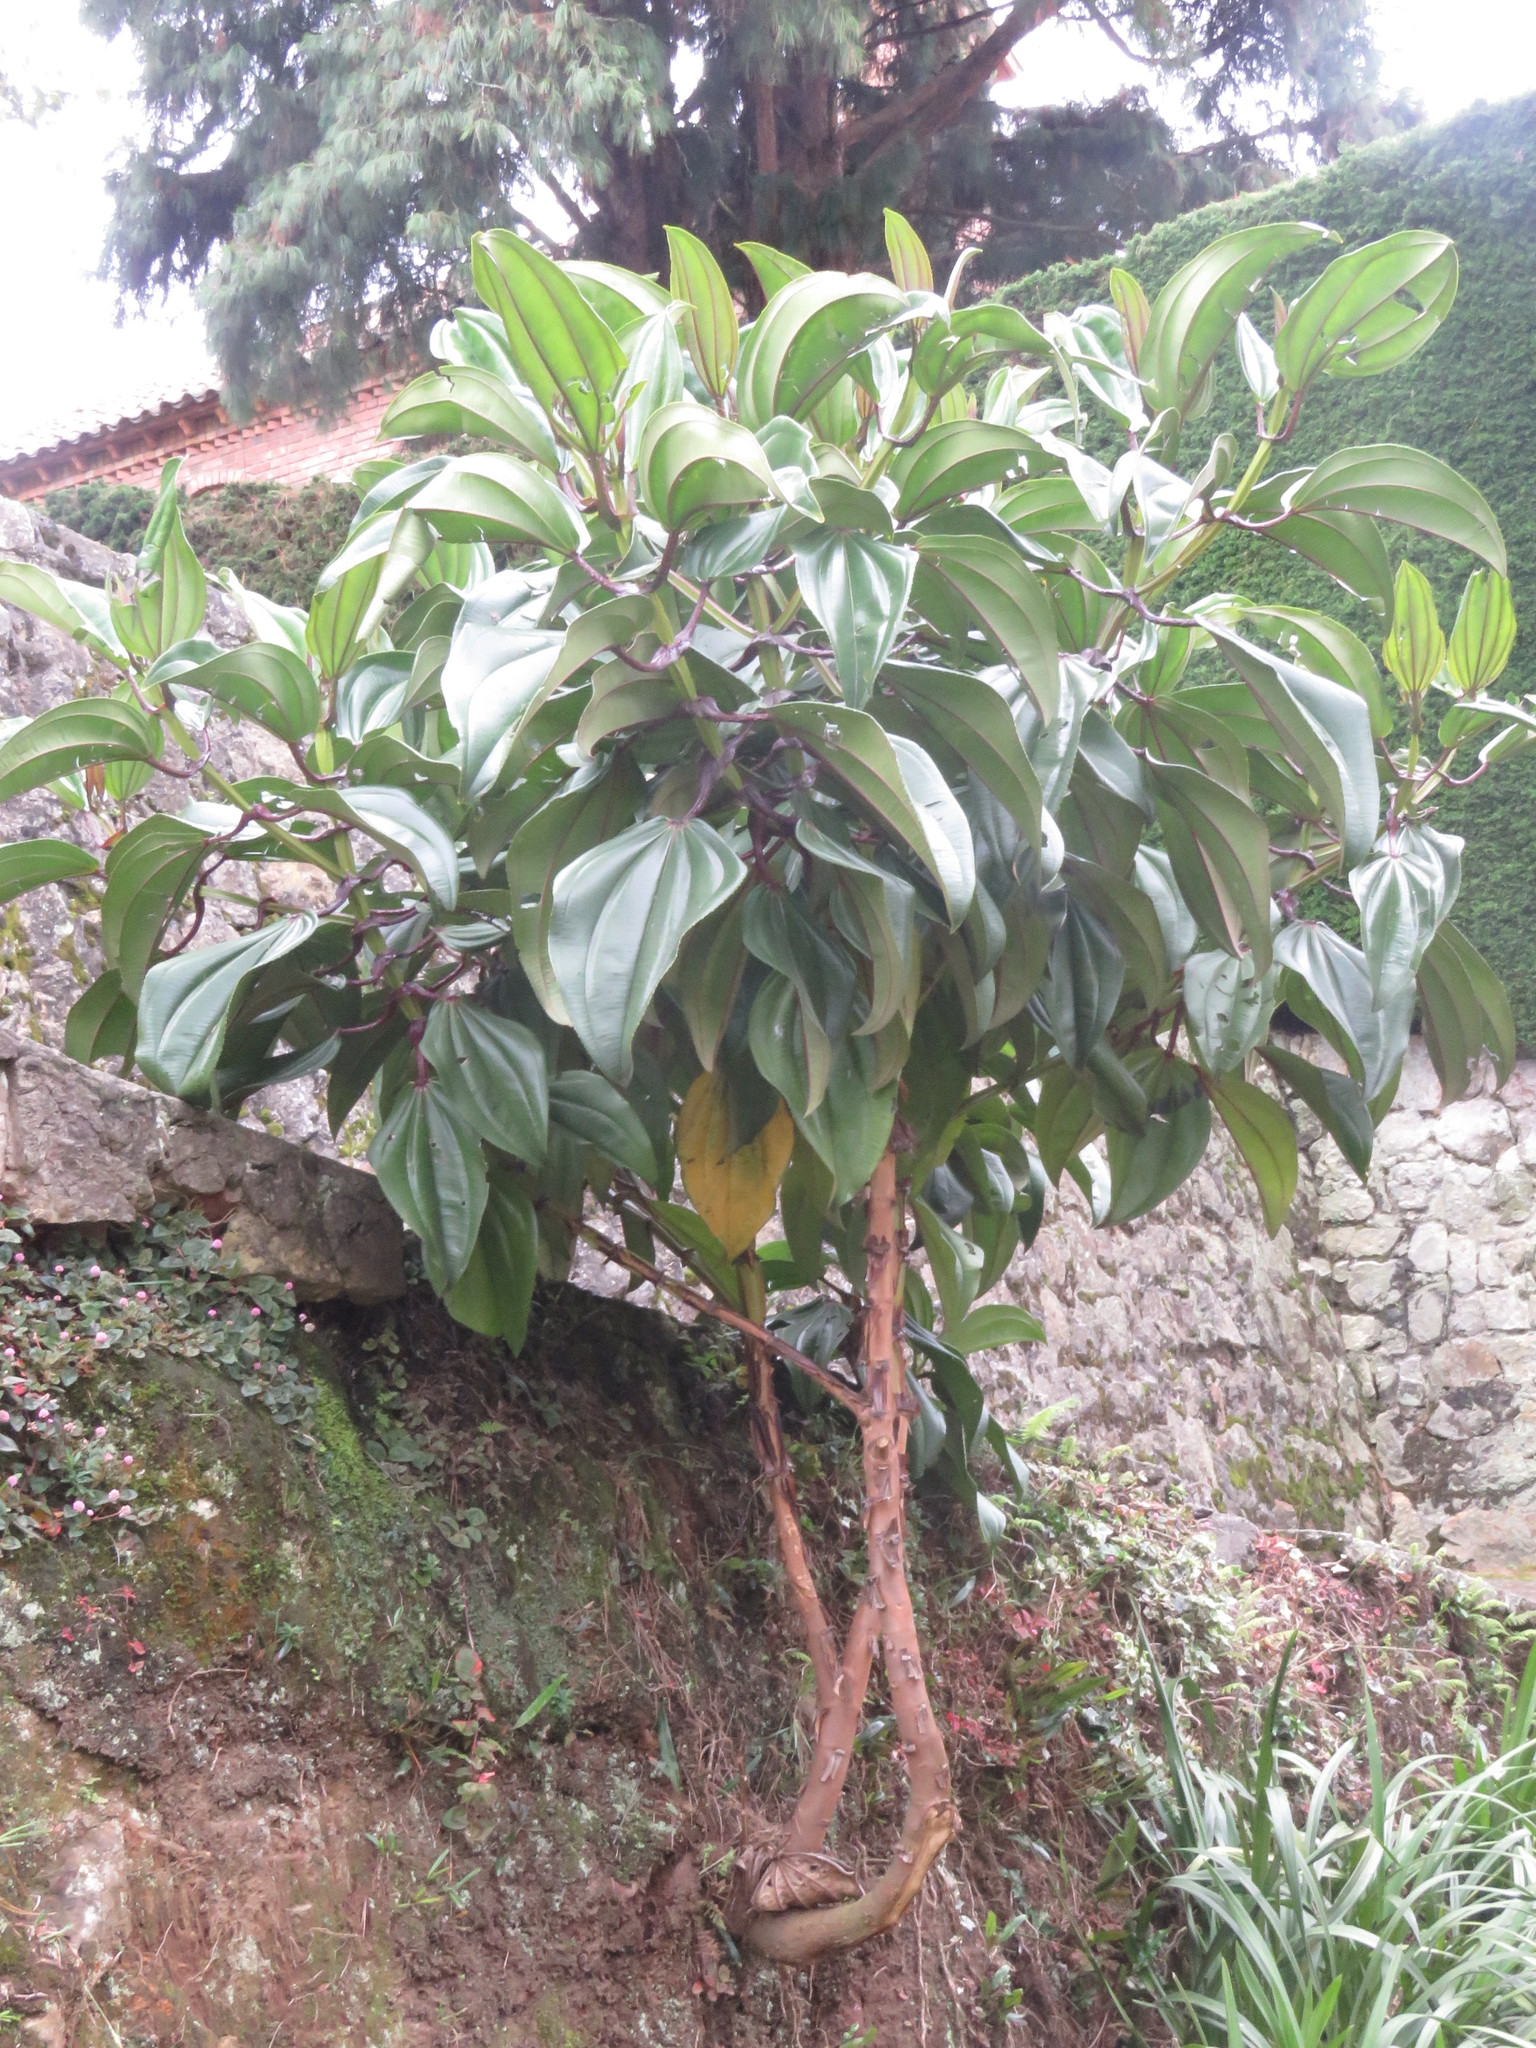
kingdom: Plantae
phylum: Tracheophyta
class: Magnoliopsida
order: Myrtales
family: Melastomataceae
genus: Meriania
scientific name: Meriania nobilis
